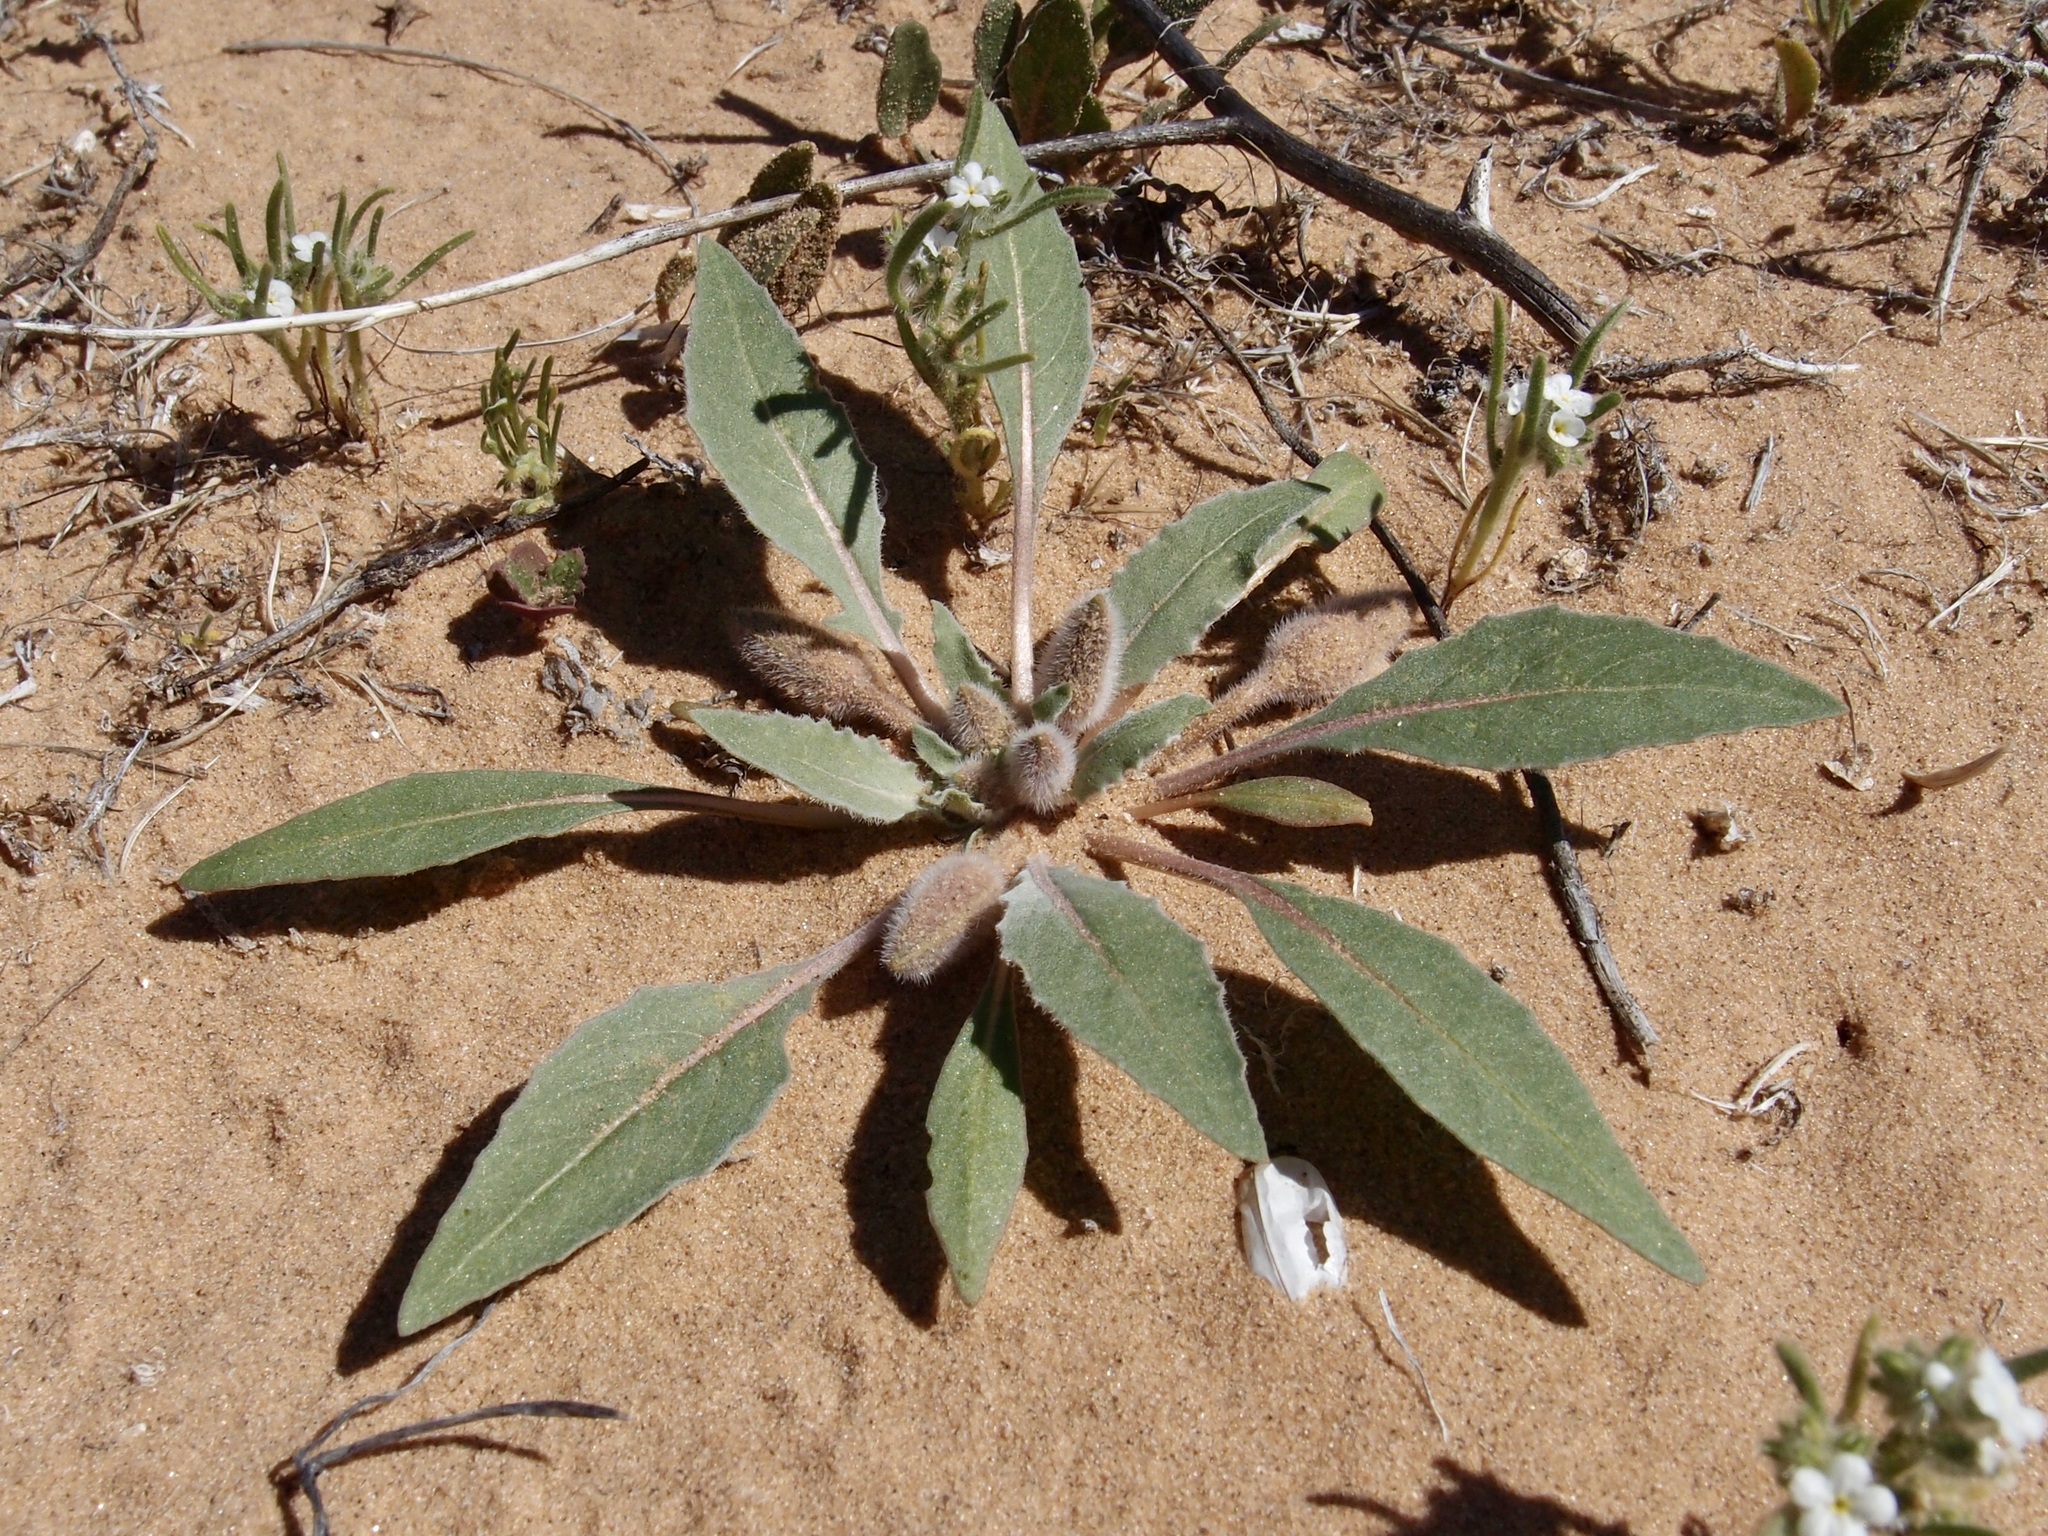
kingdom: Plantae
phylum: Tracheophyta
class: Magnoliopsida
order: Myrtales
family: Onagraceae
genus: Oenothera
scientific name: Oenothera deltoides
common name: Basket evening-primrose
